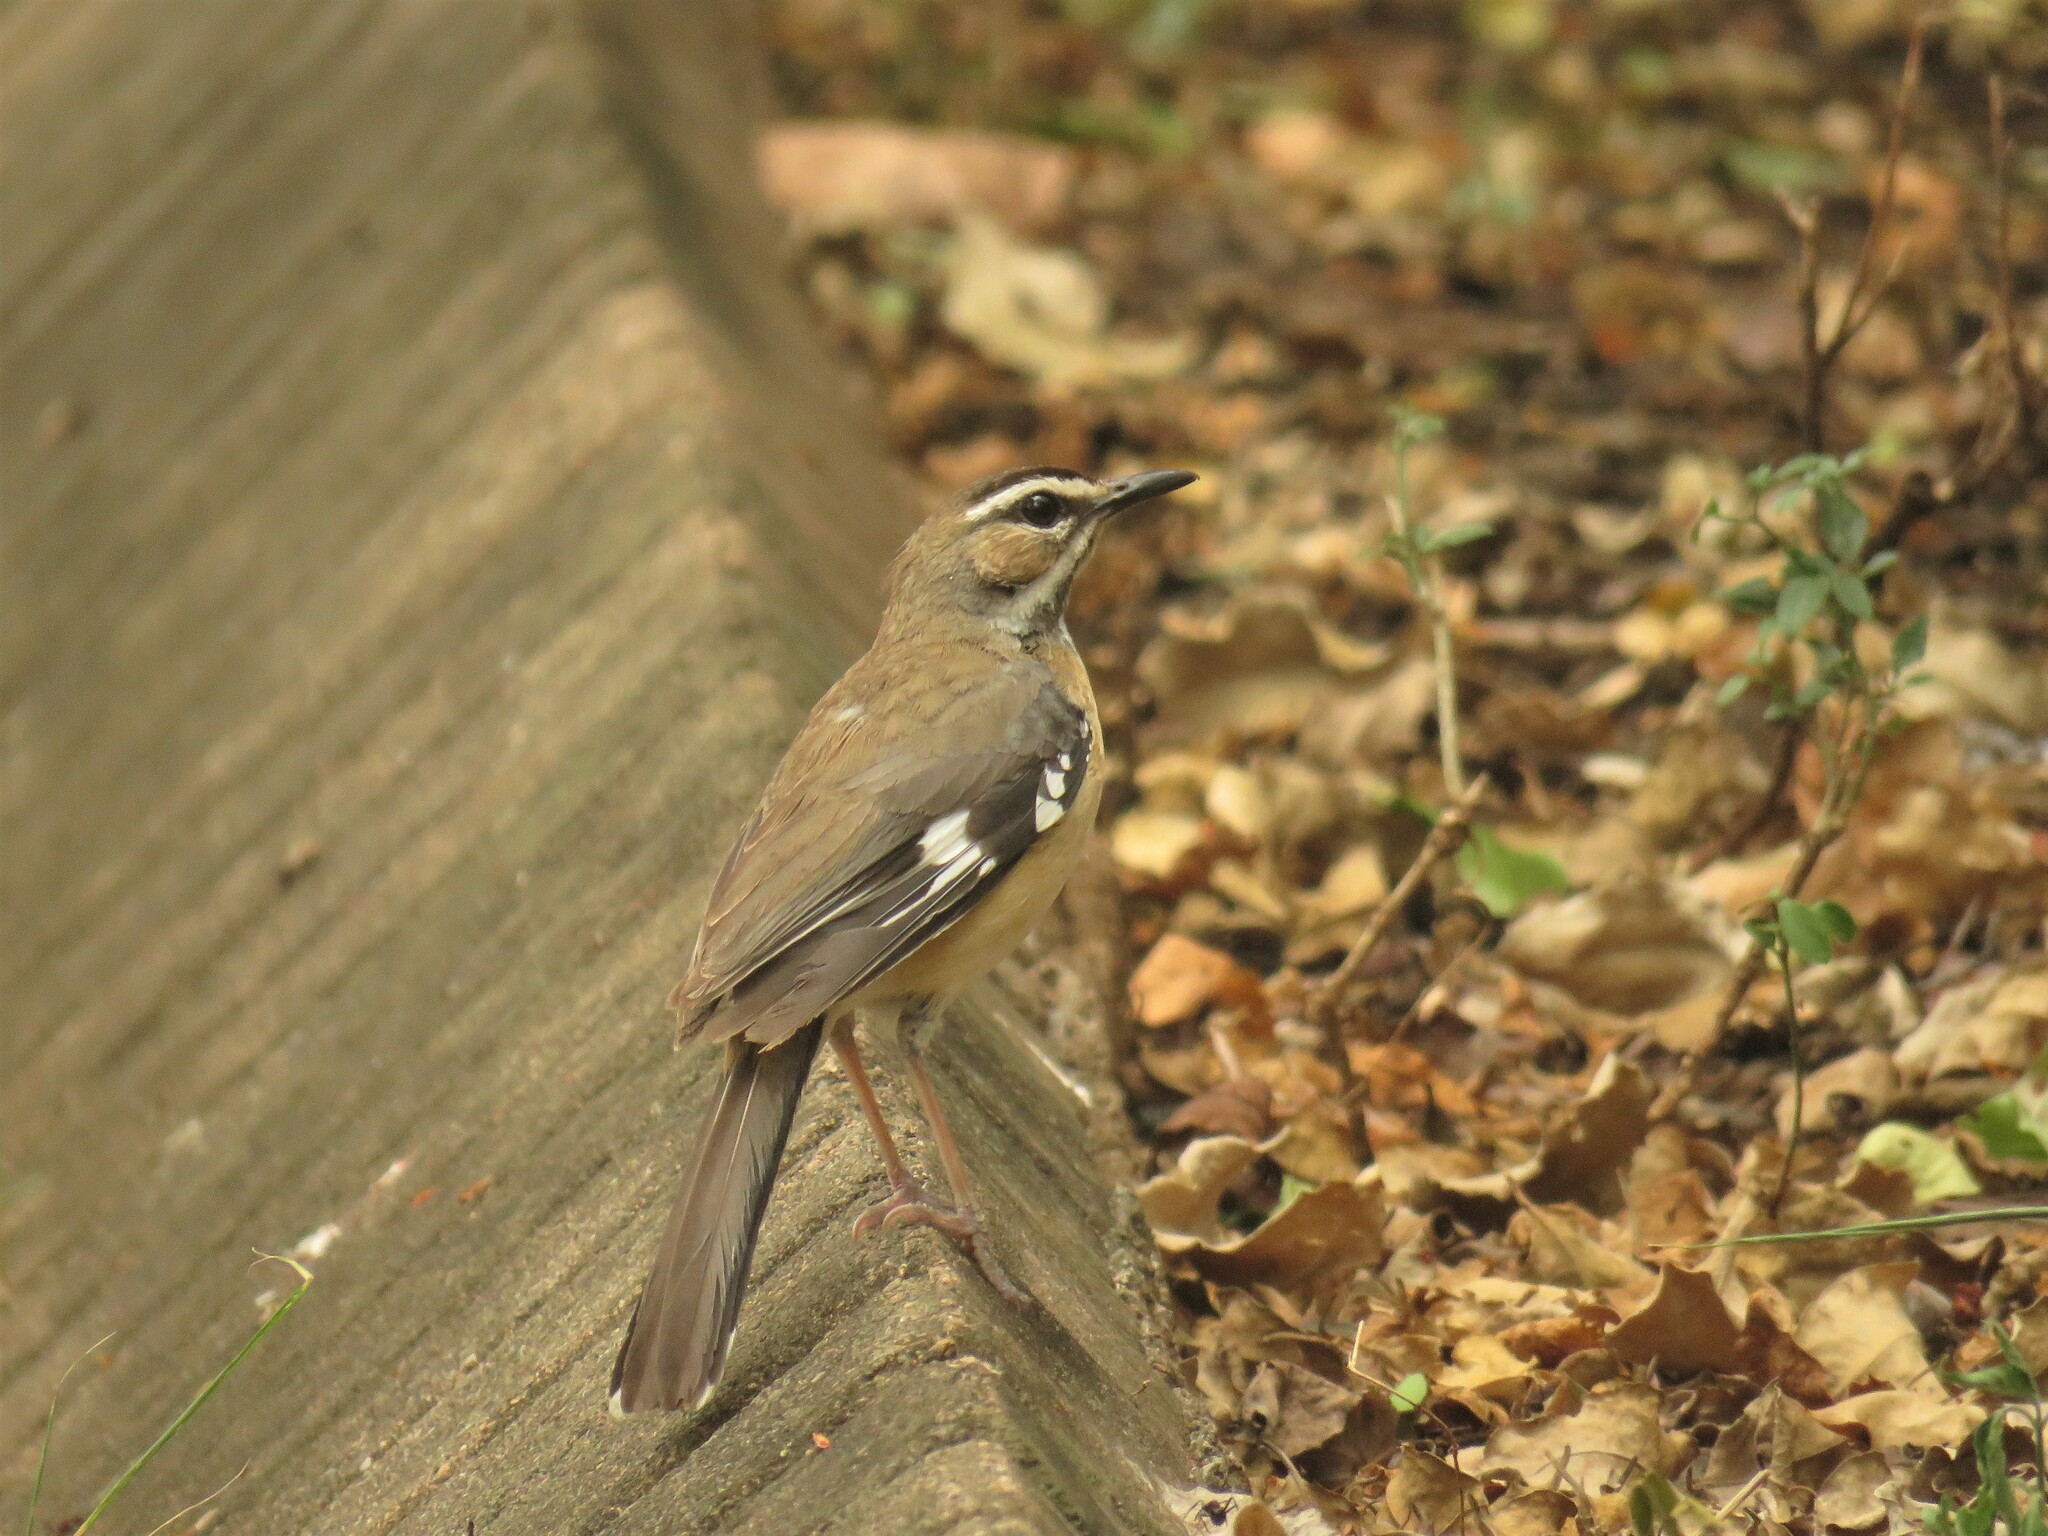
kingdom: Animalia
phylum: Chordata
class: Aves
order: Passeriformes
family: Muscicapidae
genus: Erythropygia
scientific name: Erythropygia quadrivirgata
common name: Bearded scrub robin
